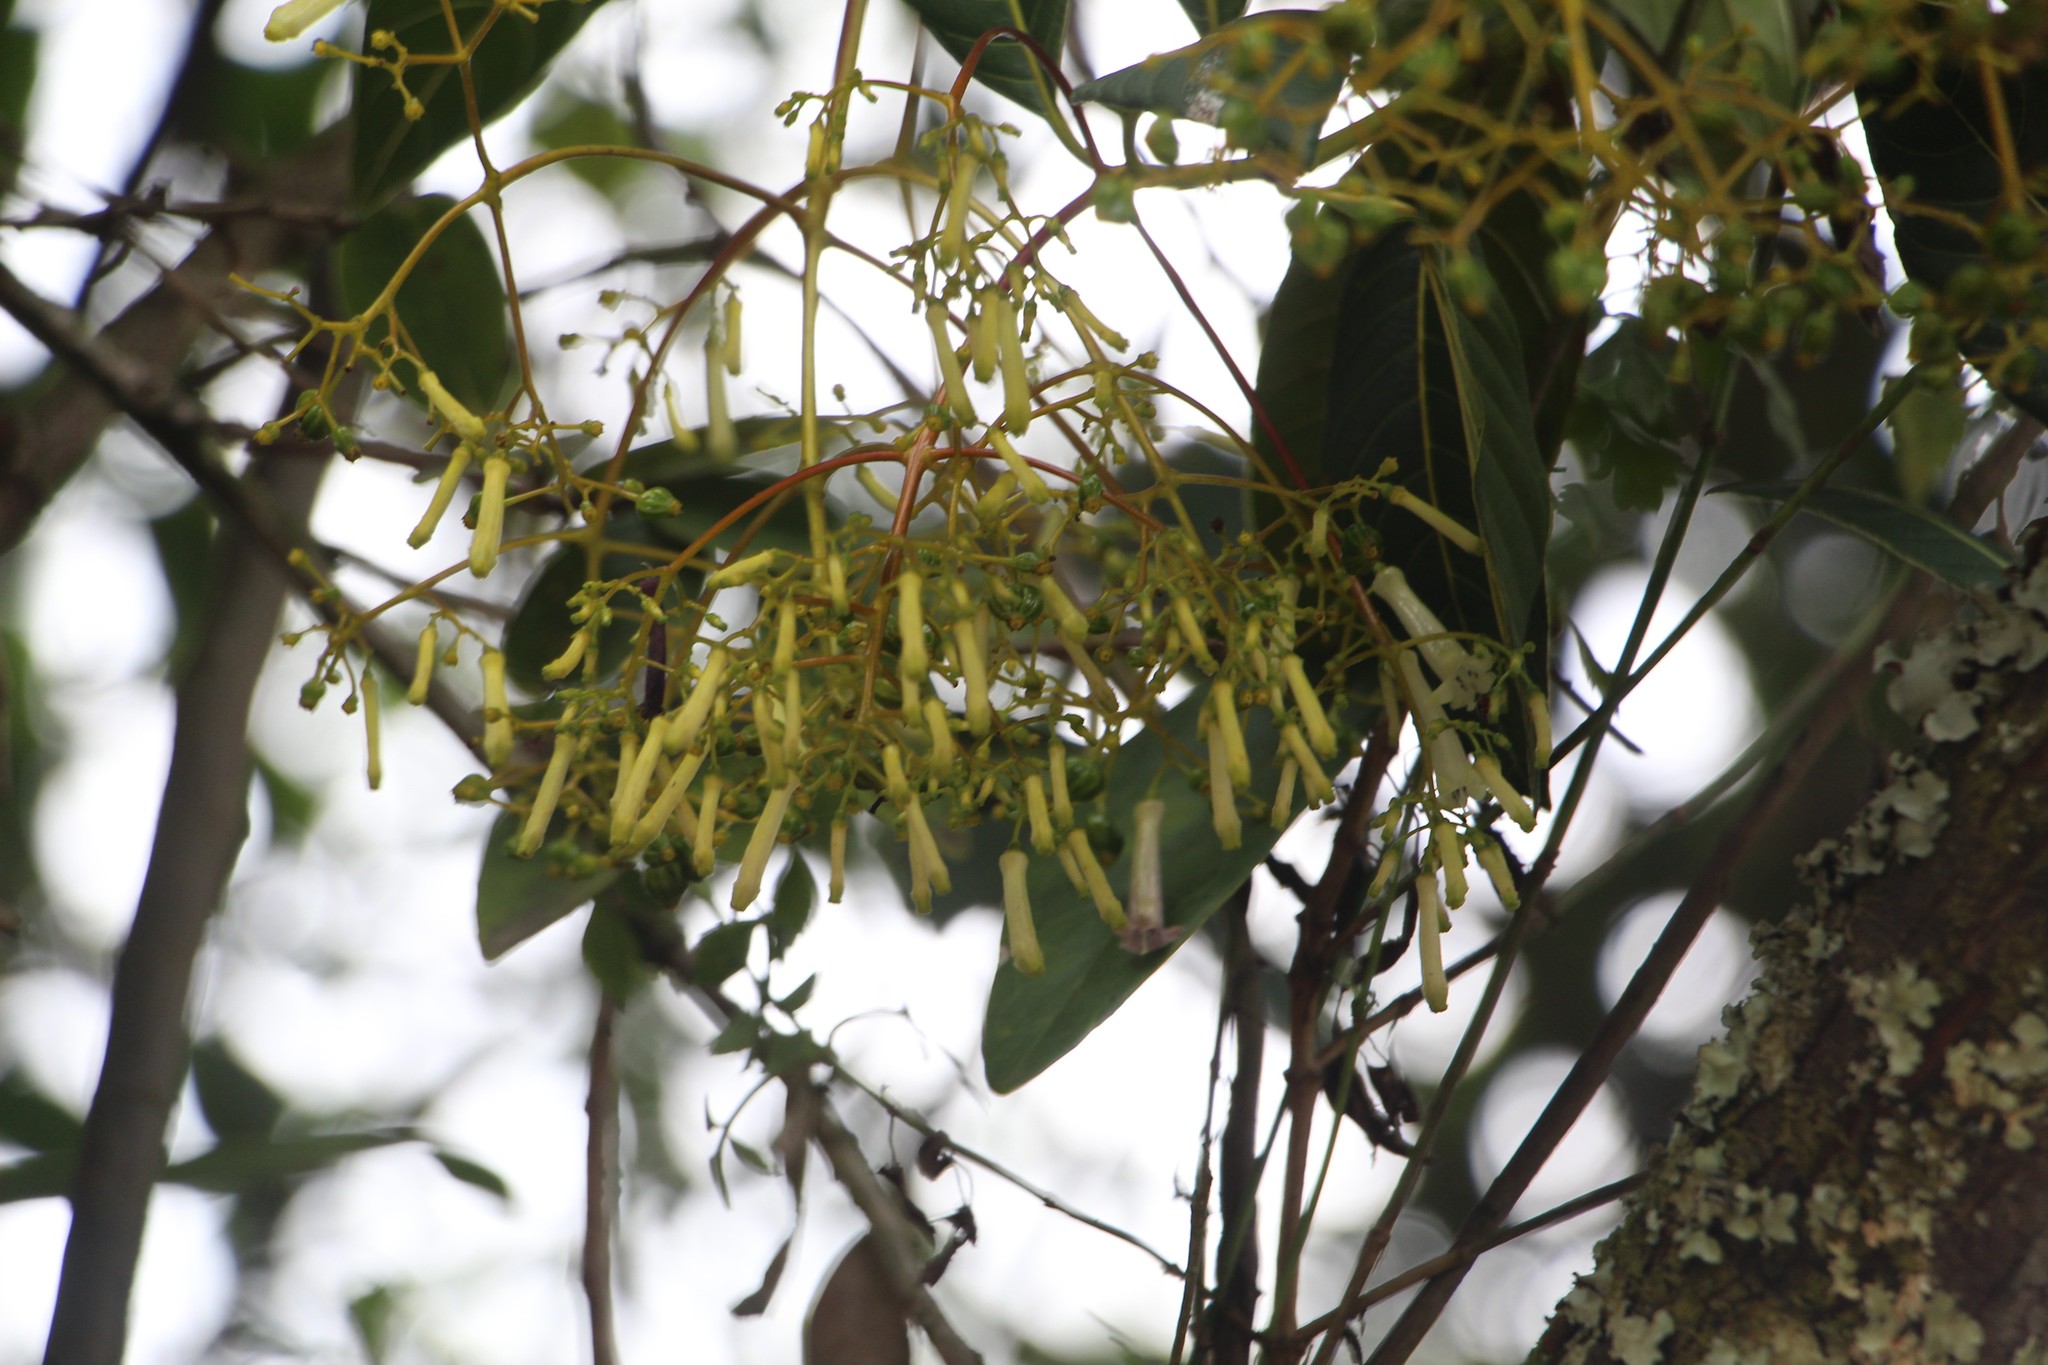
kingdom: Plantae
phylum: Tracheophyta
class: Magnoliopsida
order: Gentianales
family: Rubiaceae
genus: Palicourea
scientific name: Palicourea lineariflora
